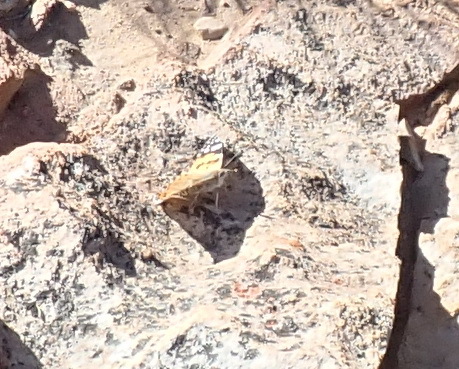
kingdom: Animalia
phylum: Arthropoda
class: Insecta
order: Lepidoptera
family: Nymphalidae
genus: Vanessa
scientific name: Vanessa cardui
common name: Painted lady
